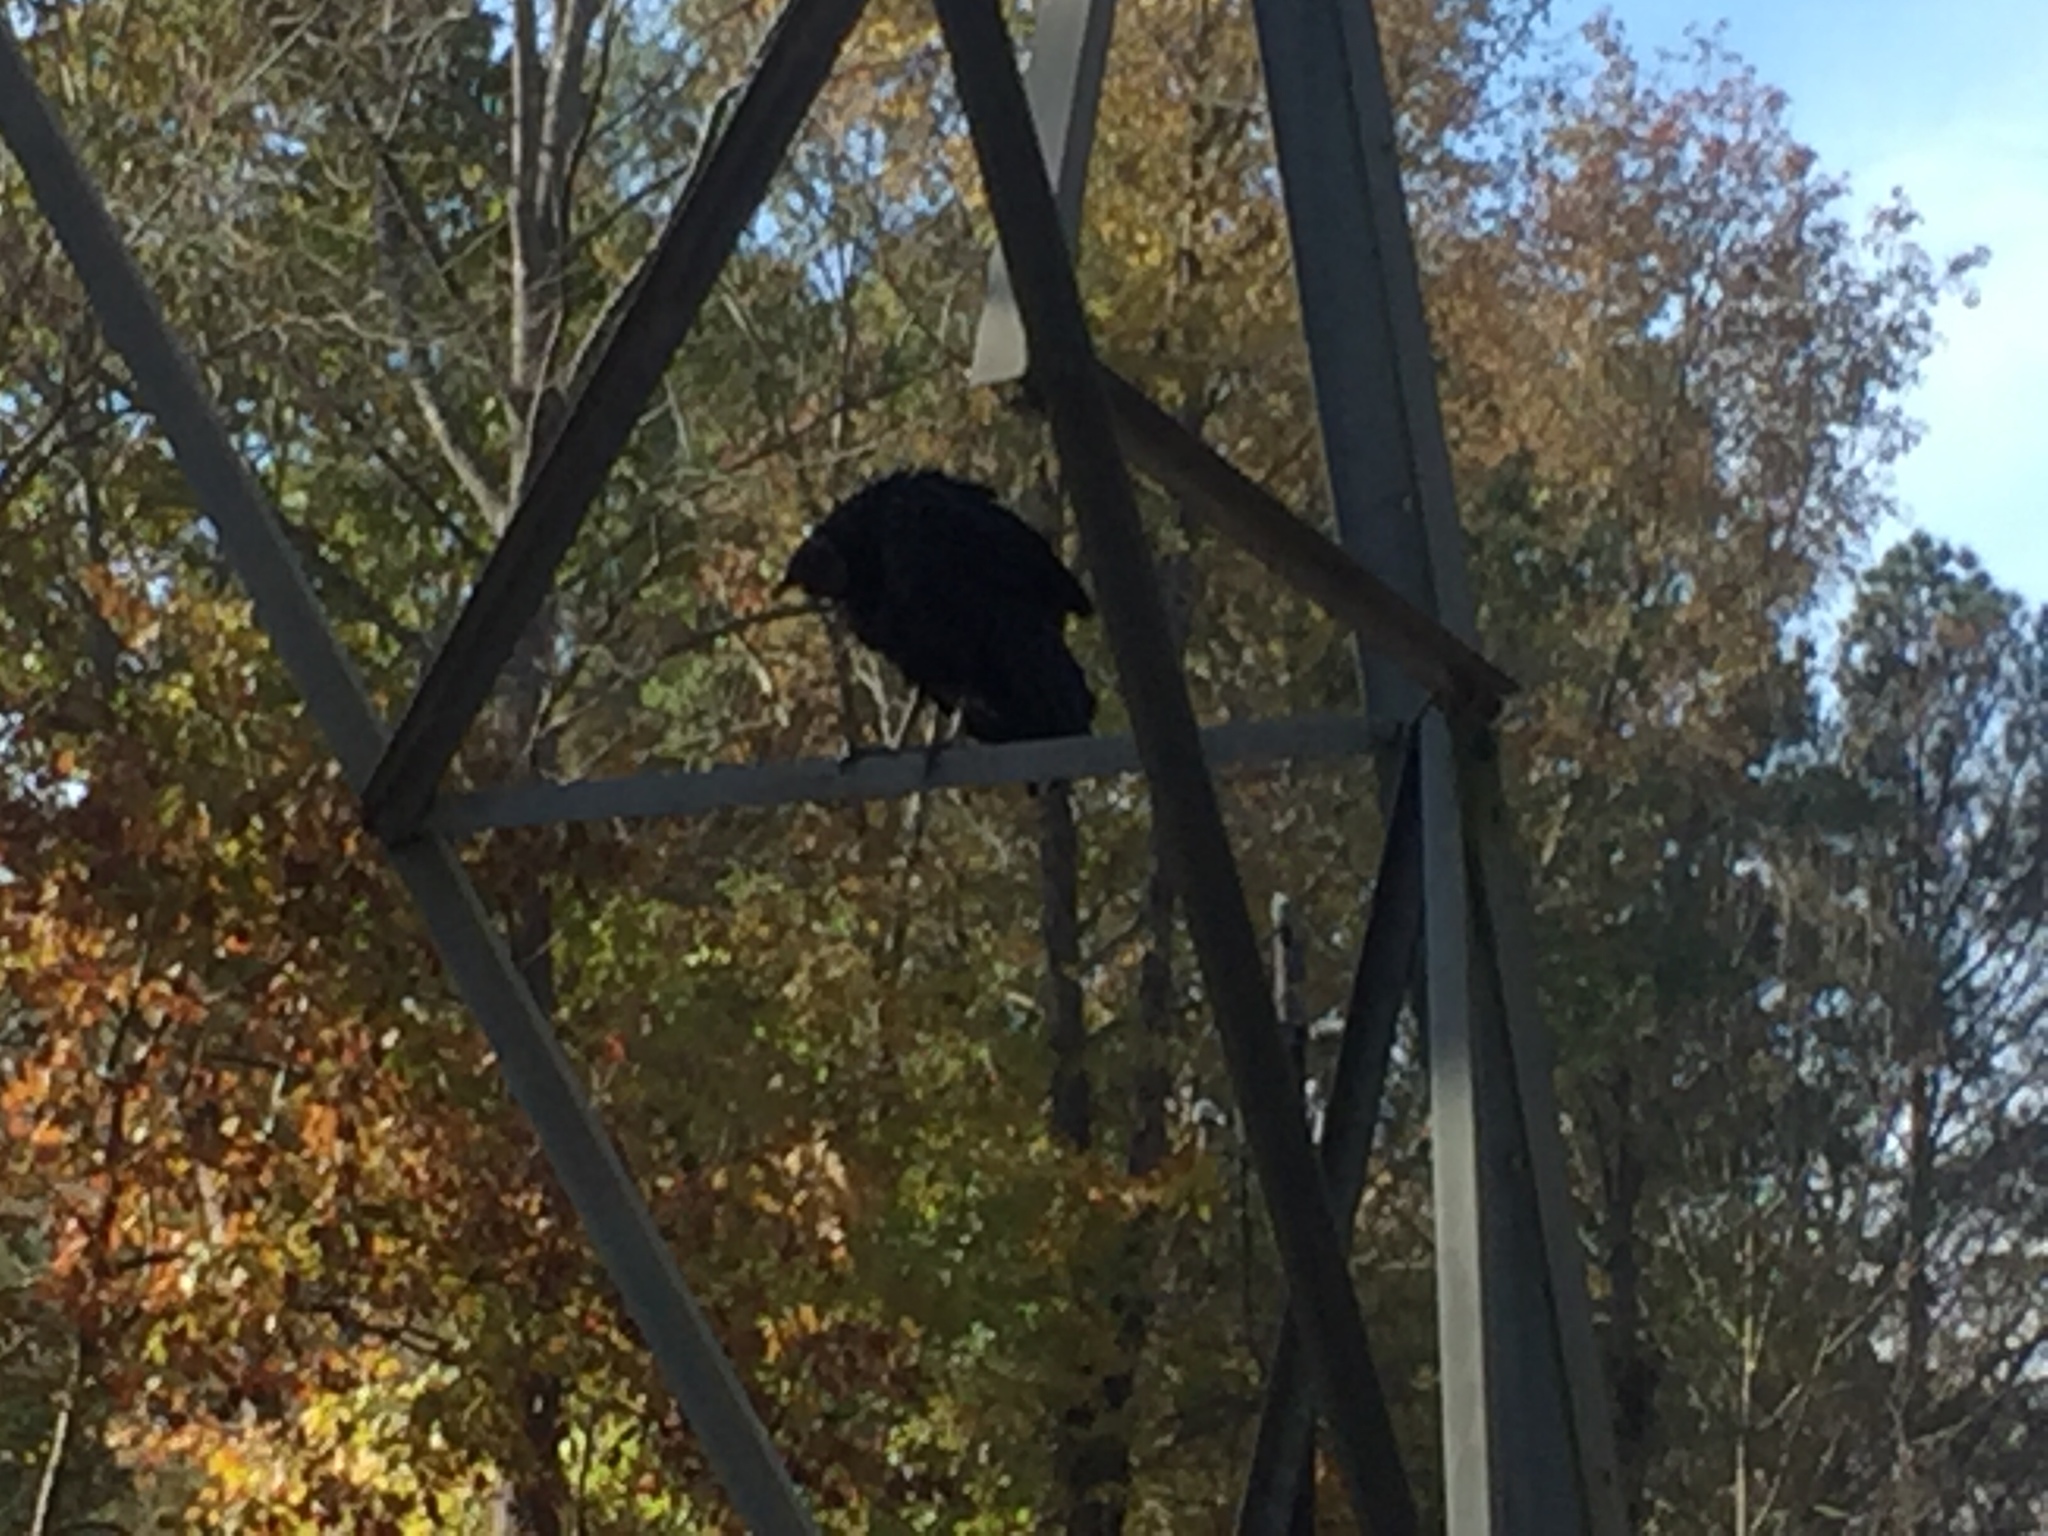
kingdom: Animalia
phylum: Chordata
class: Aves
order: Accipitriformes
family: Cathartidae
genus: Coragyps
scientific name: Coragyps atratus
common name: Black vulture
